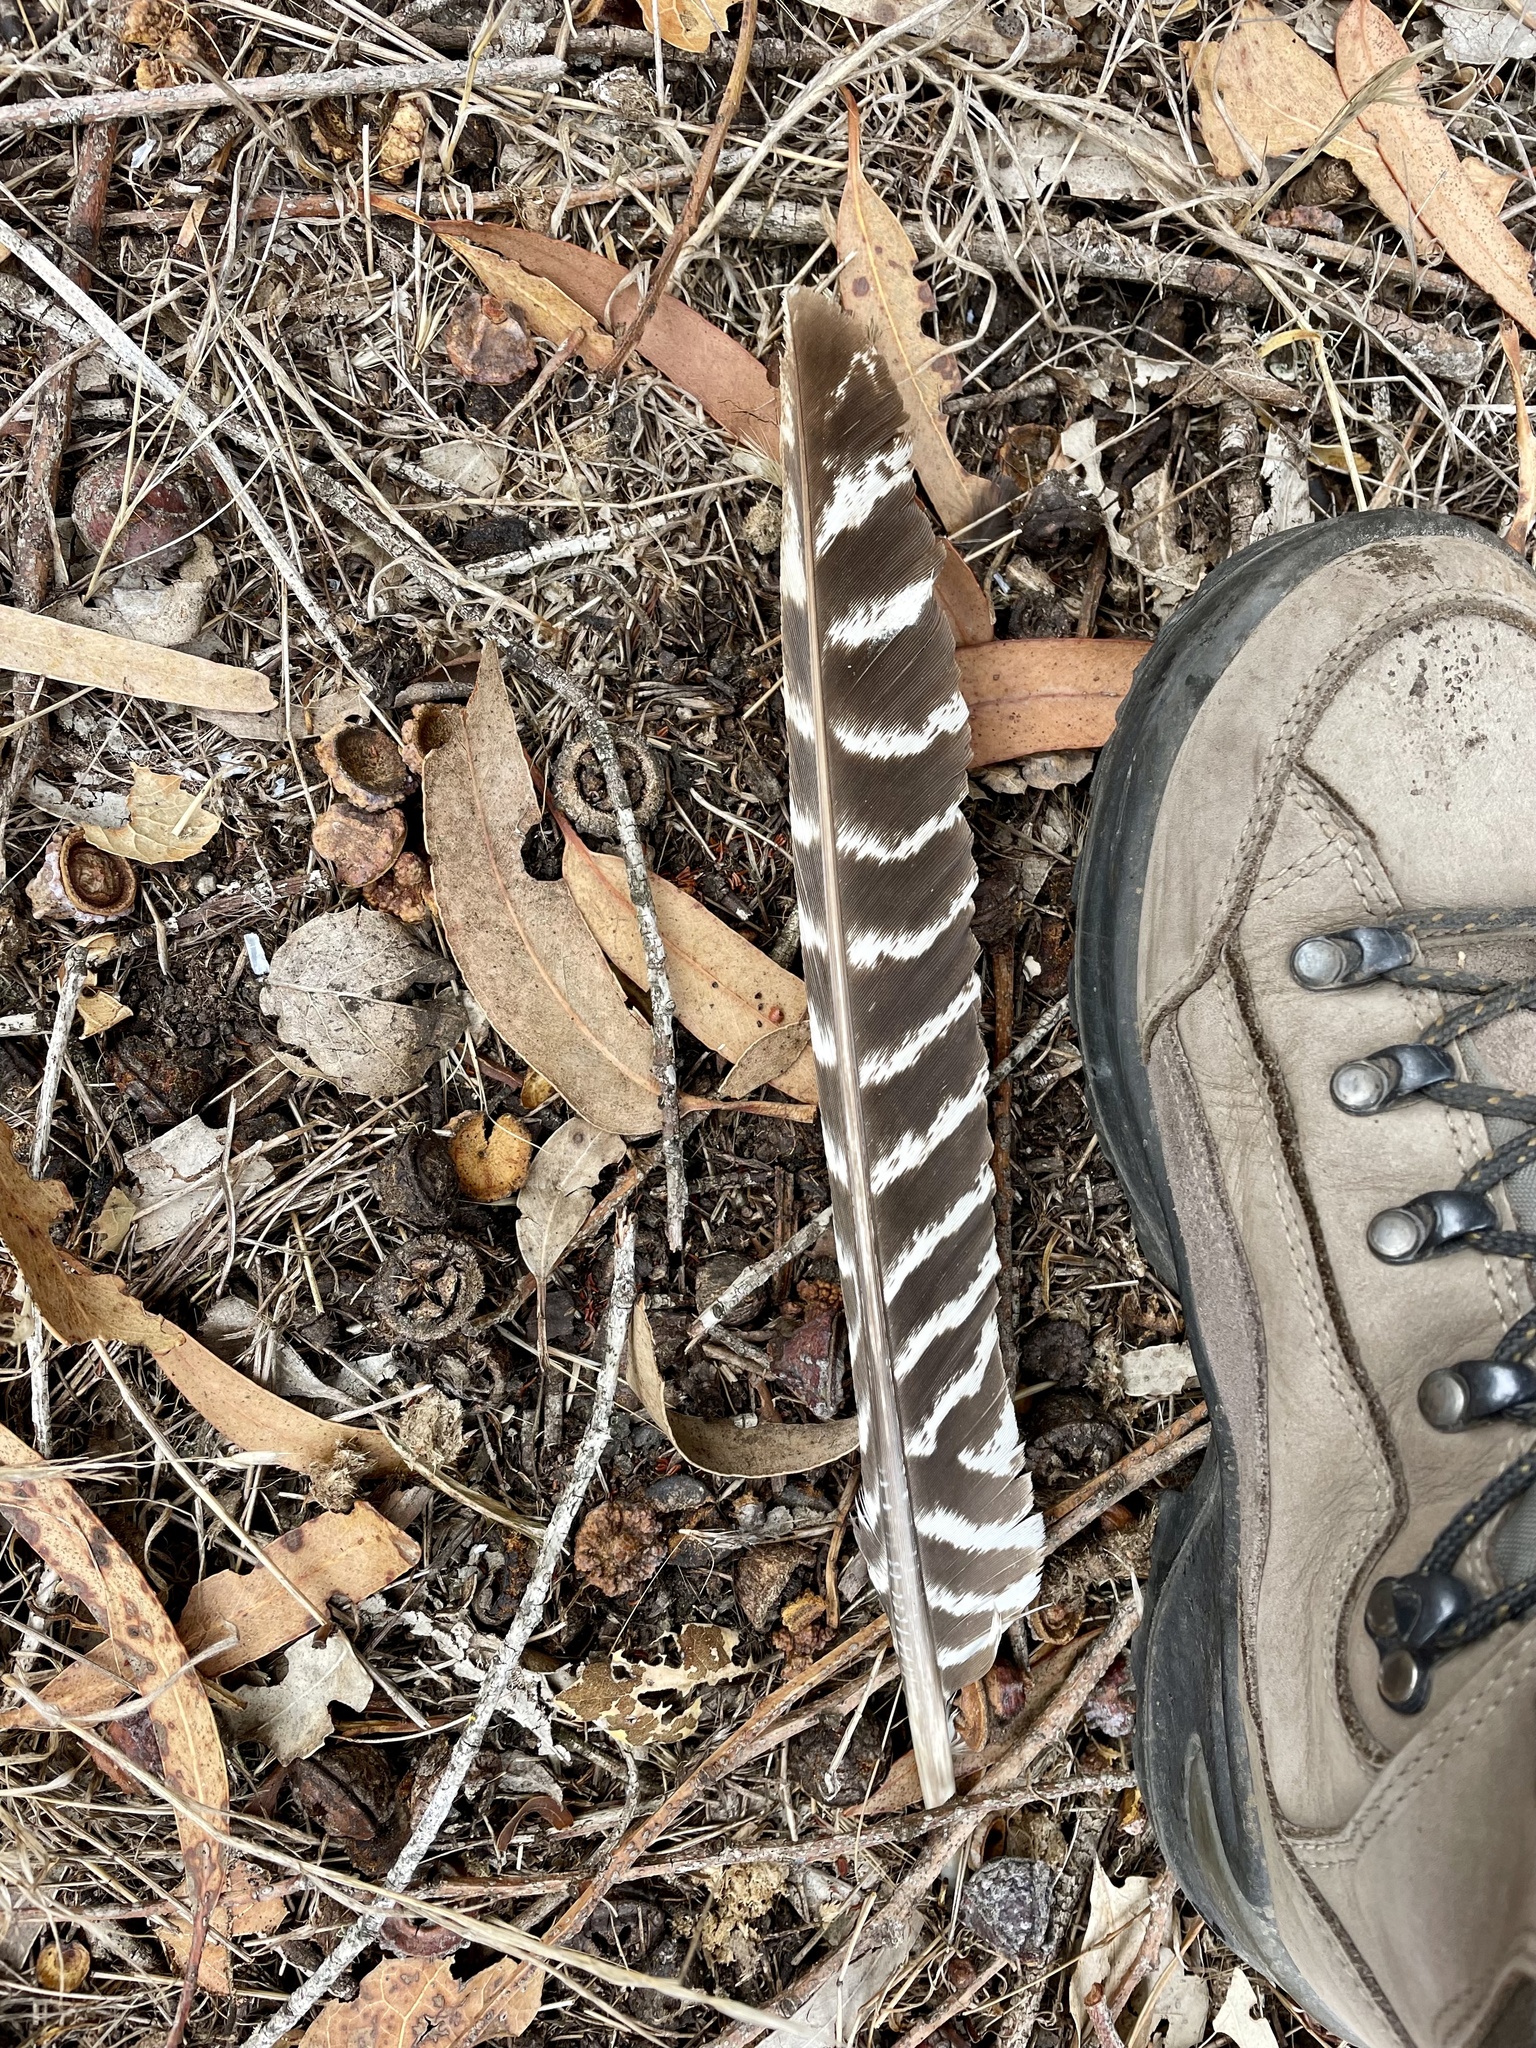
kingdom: Animalia
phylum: Chordata
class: Aves
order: Galliformes
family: Phasianidae
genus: Meleagris
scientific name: Meleagris gallopavo
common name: Wild turkey
